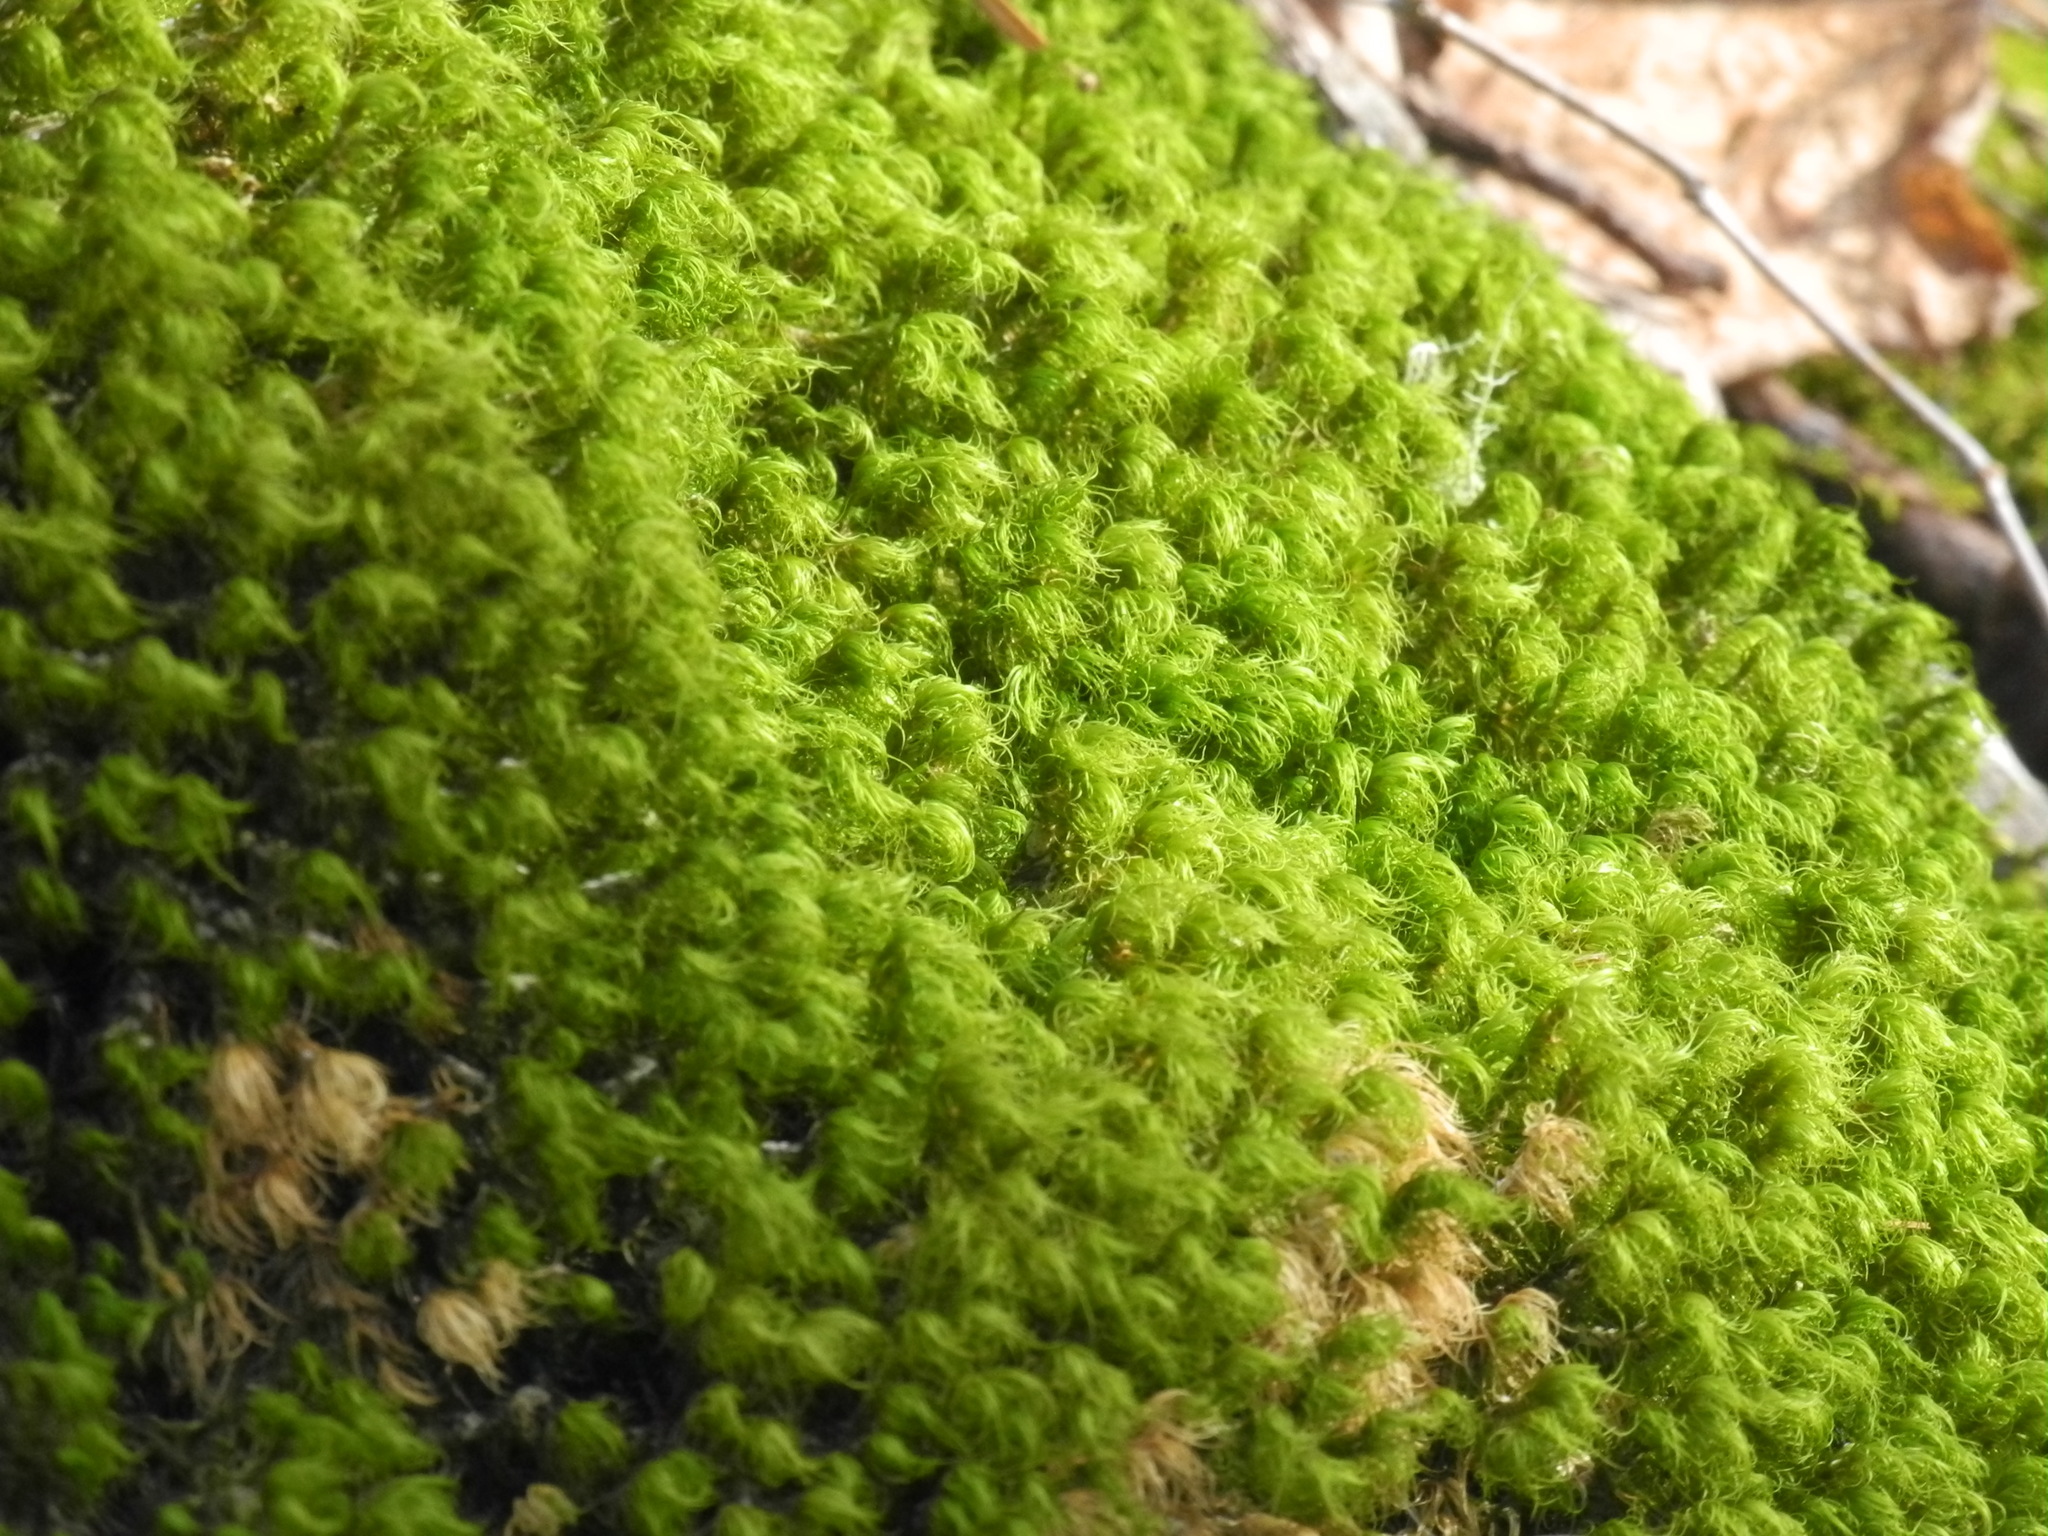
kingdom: Plantae
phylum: Bryophyta
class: Bryopsida
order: Dicranales
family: Dicranaceae
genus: Dicranum
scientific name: Dicranum scoparium
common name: Broom fork-moss
